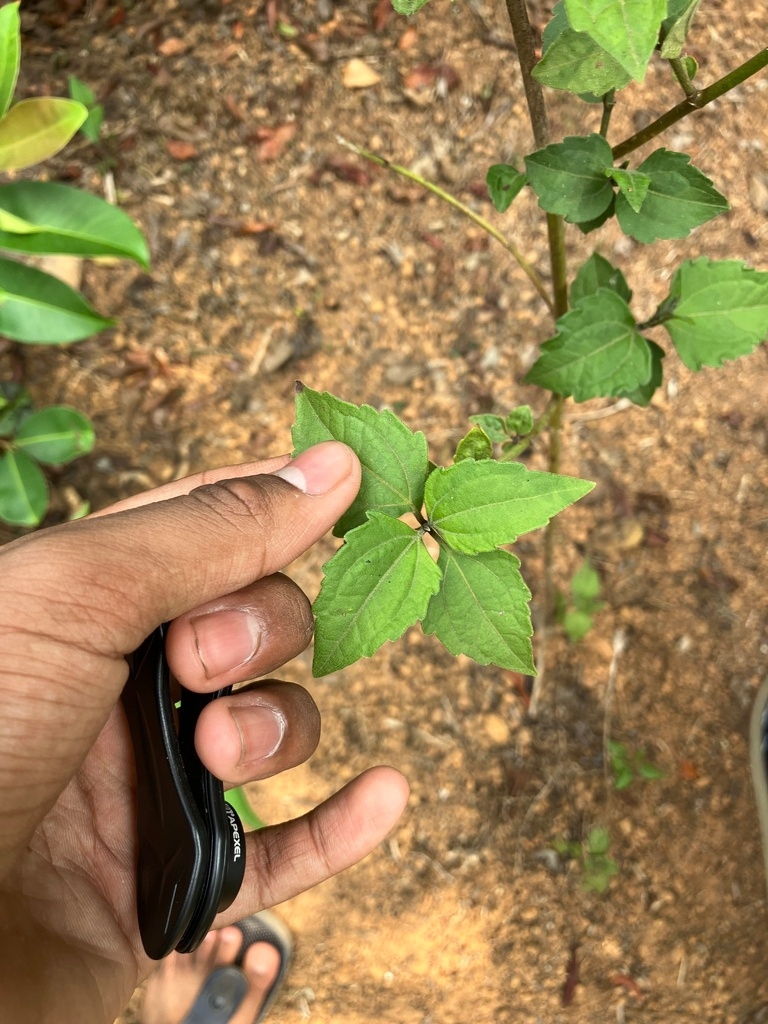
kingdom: Animalia
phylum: Arthropoda
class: Insecta
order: Diptera
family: Tephritidae
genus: Cecidochares
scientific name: Cecidochares connexa
